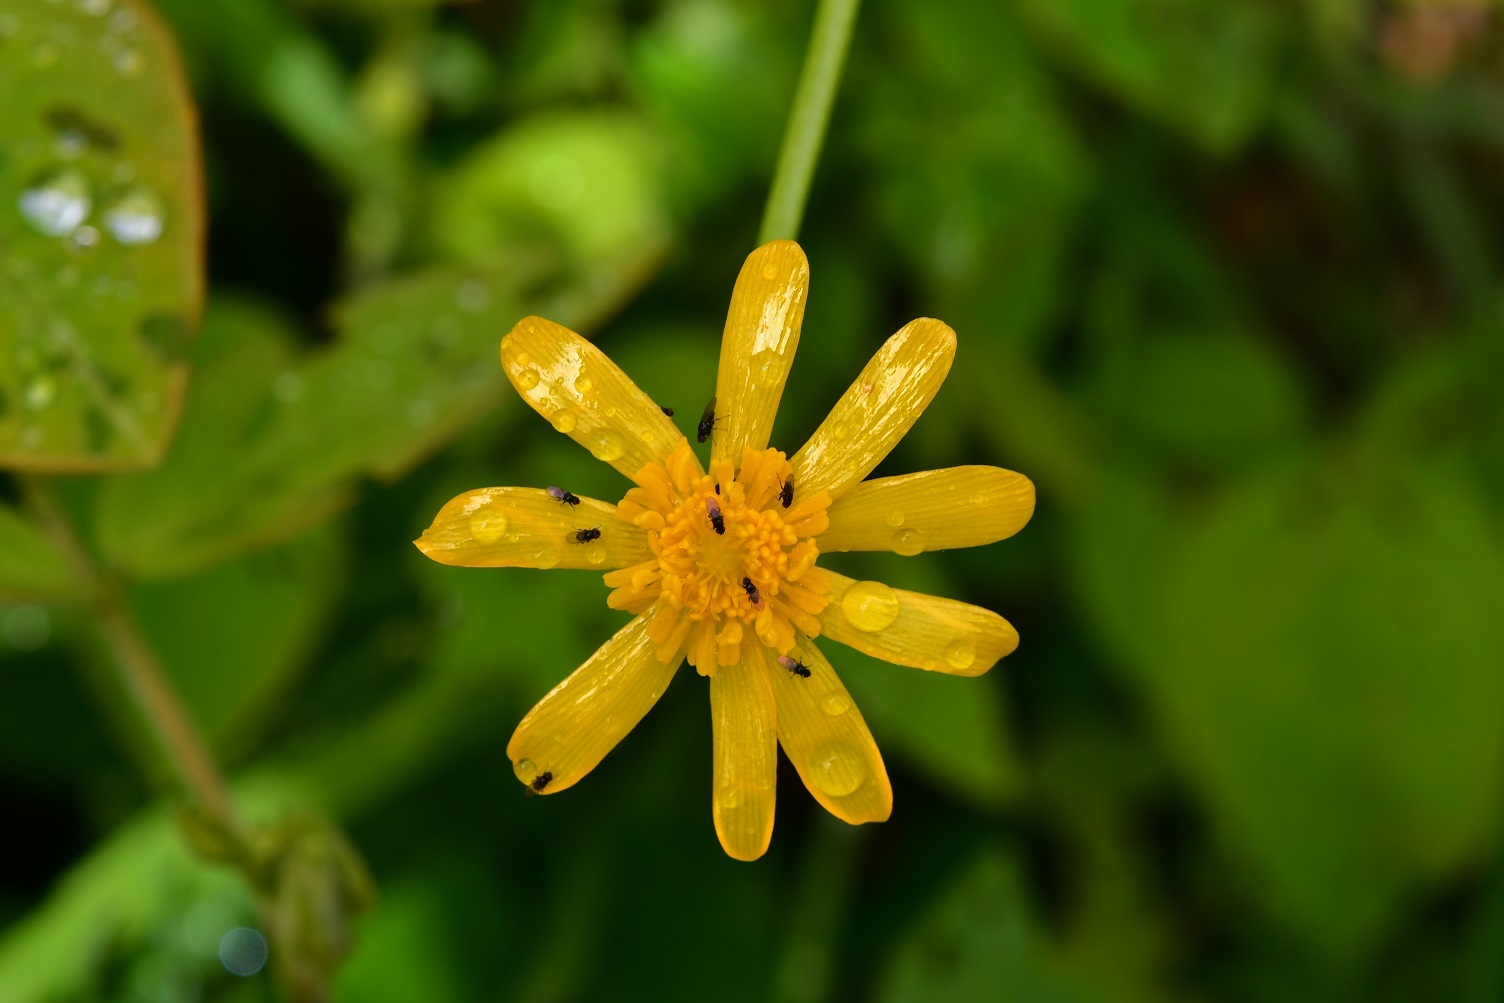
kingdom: Plantae
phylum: Tracheophyta
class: Magnoliopsida
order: Ranunculales
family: Ranunculaceae
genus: Ranunculus
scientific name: Ranunculus petiolaris
